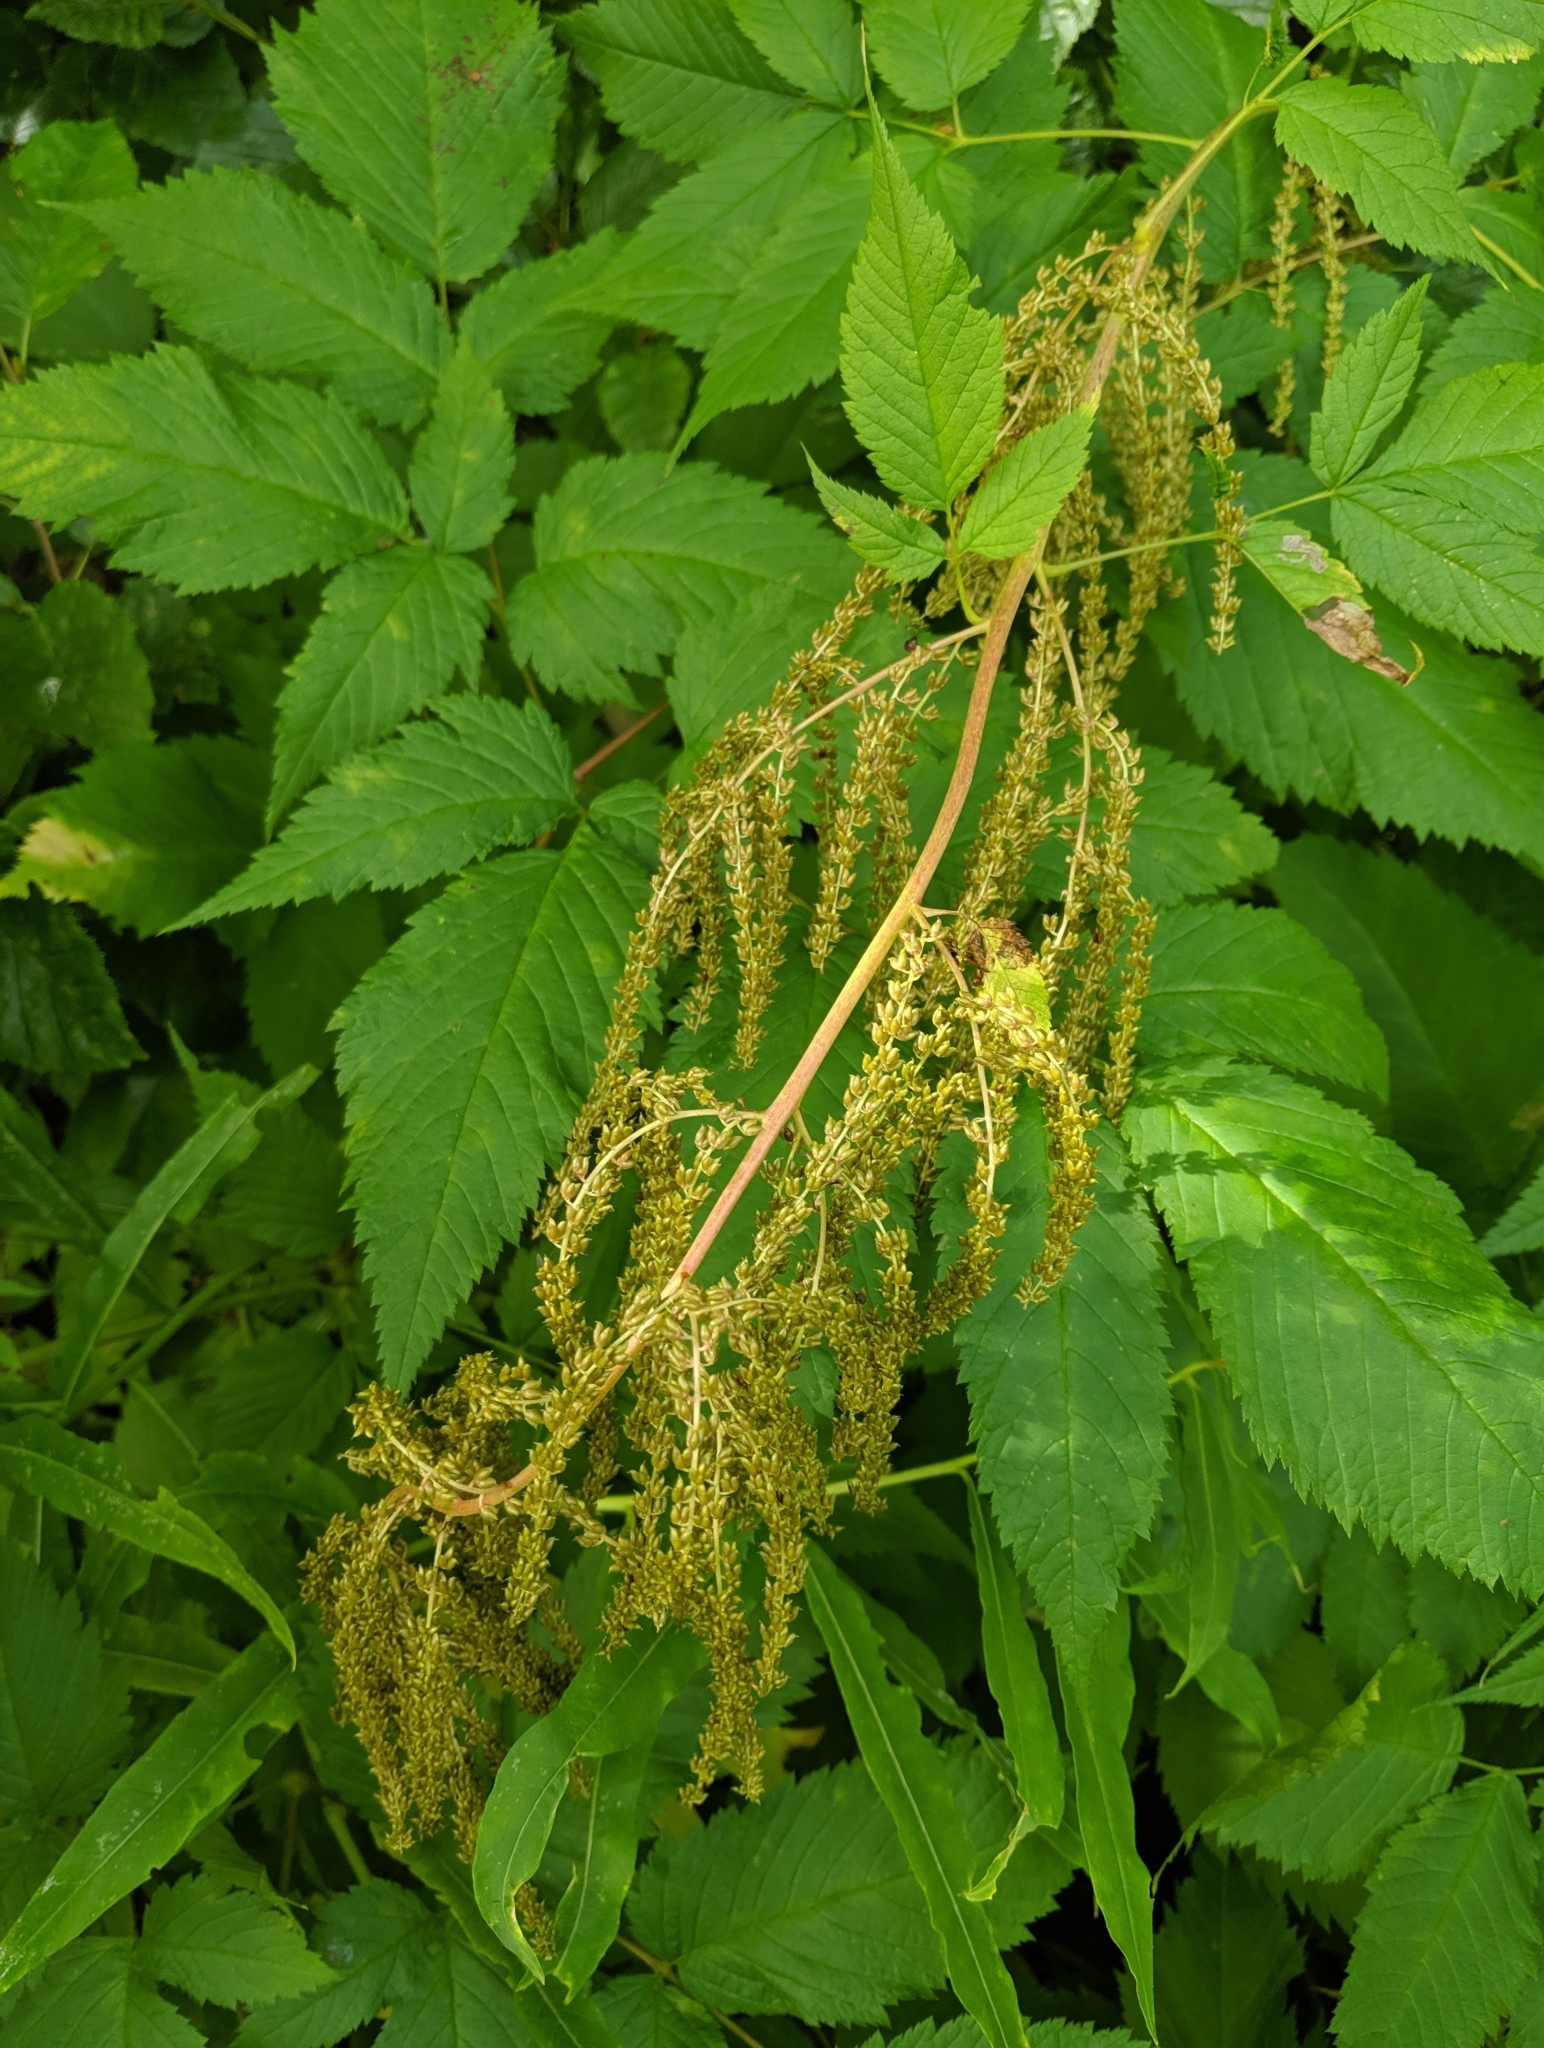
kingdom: Plantae
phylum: Tracheophyta
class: Magnoliopsida
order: Rosales
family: Rosaceae
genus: Aruncus
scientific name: Aruncus dioicus
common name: Buck's-beard
